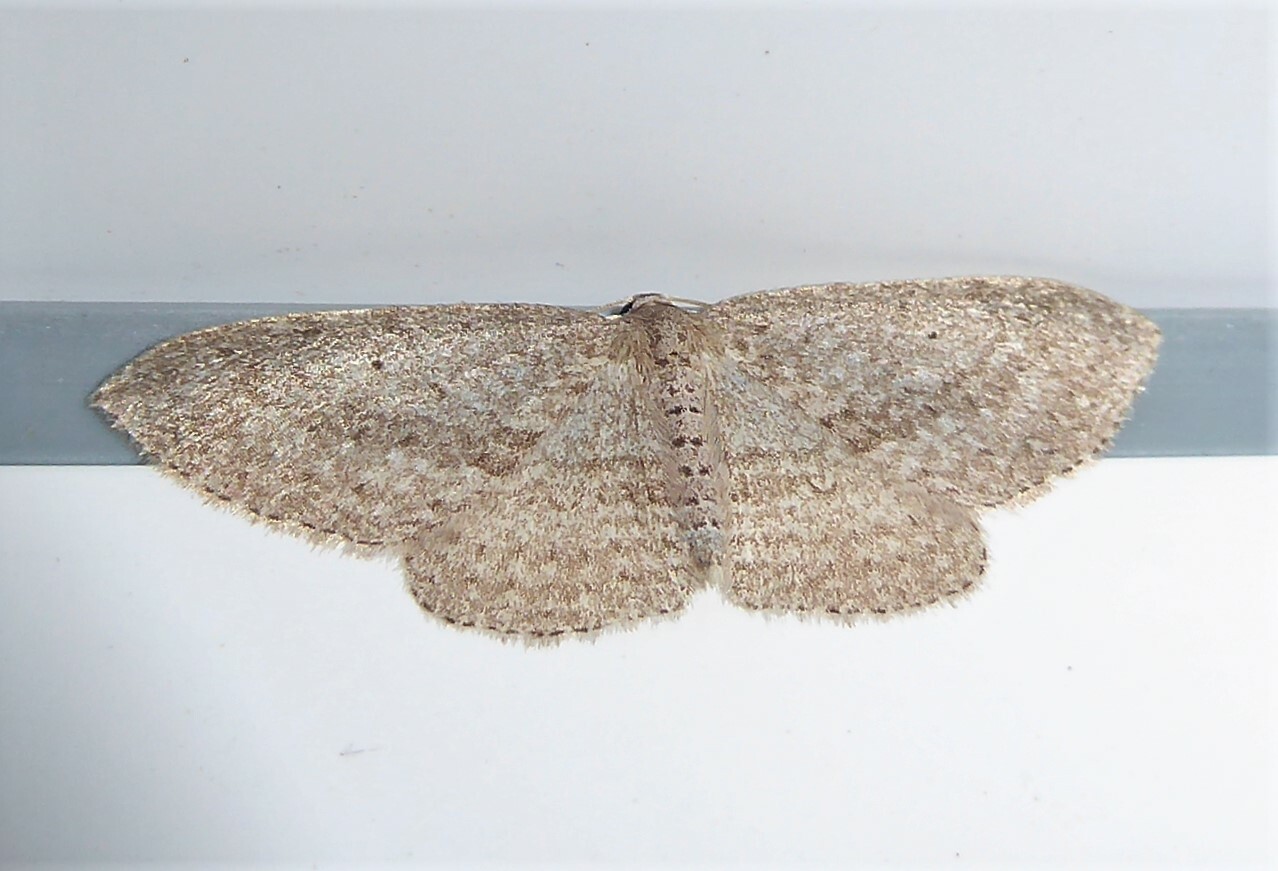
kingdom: Animalia
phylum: Arthropoda
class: Insecta
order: Lepidoptera
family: Geometridae
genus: Poecilasthena
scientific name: Poecilasthena schistaria
